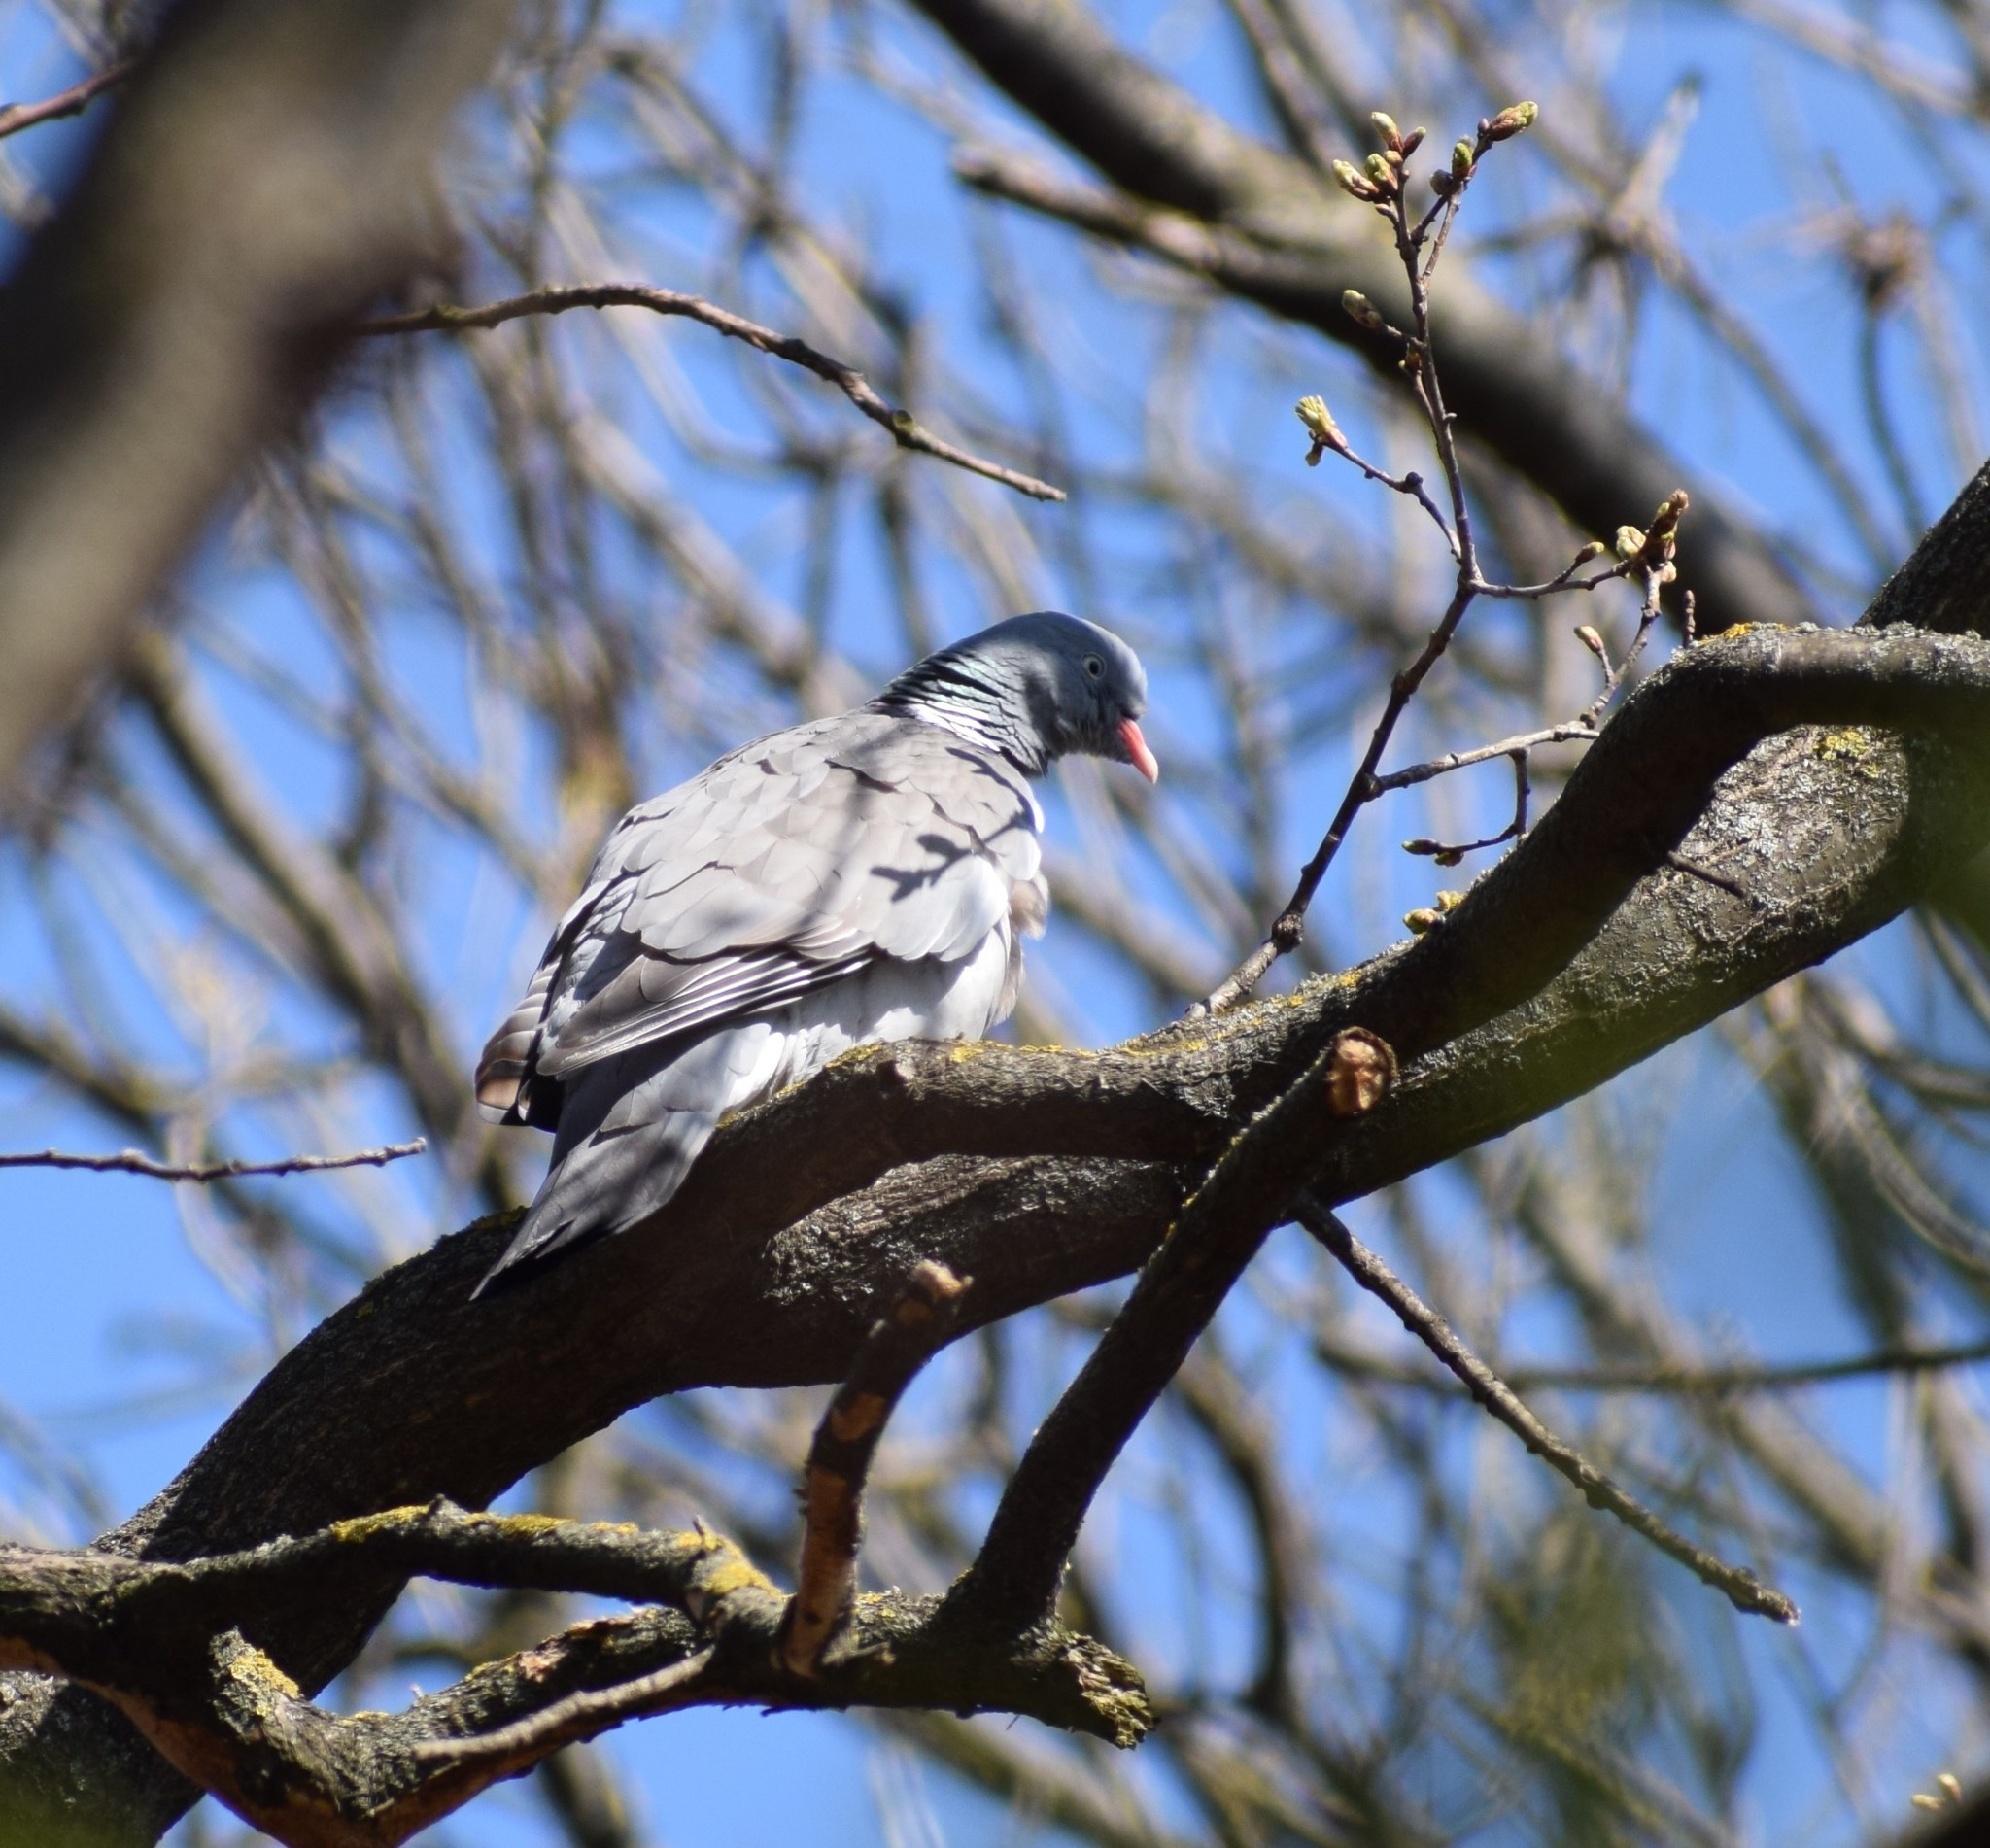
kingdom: Animalia
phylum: Chordata
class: Aves
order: Columbiformes
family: Columbidae
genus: Columba
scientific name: Columba palumbus
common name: Common wood pigeon
